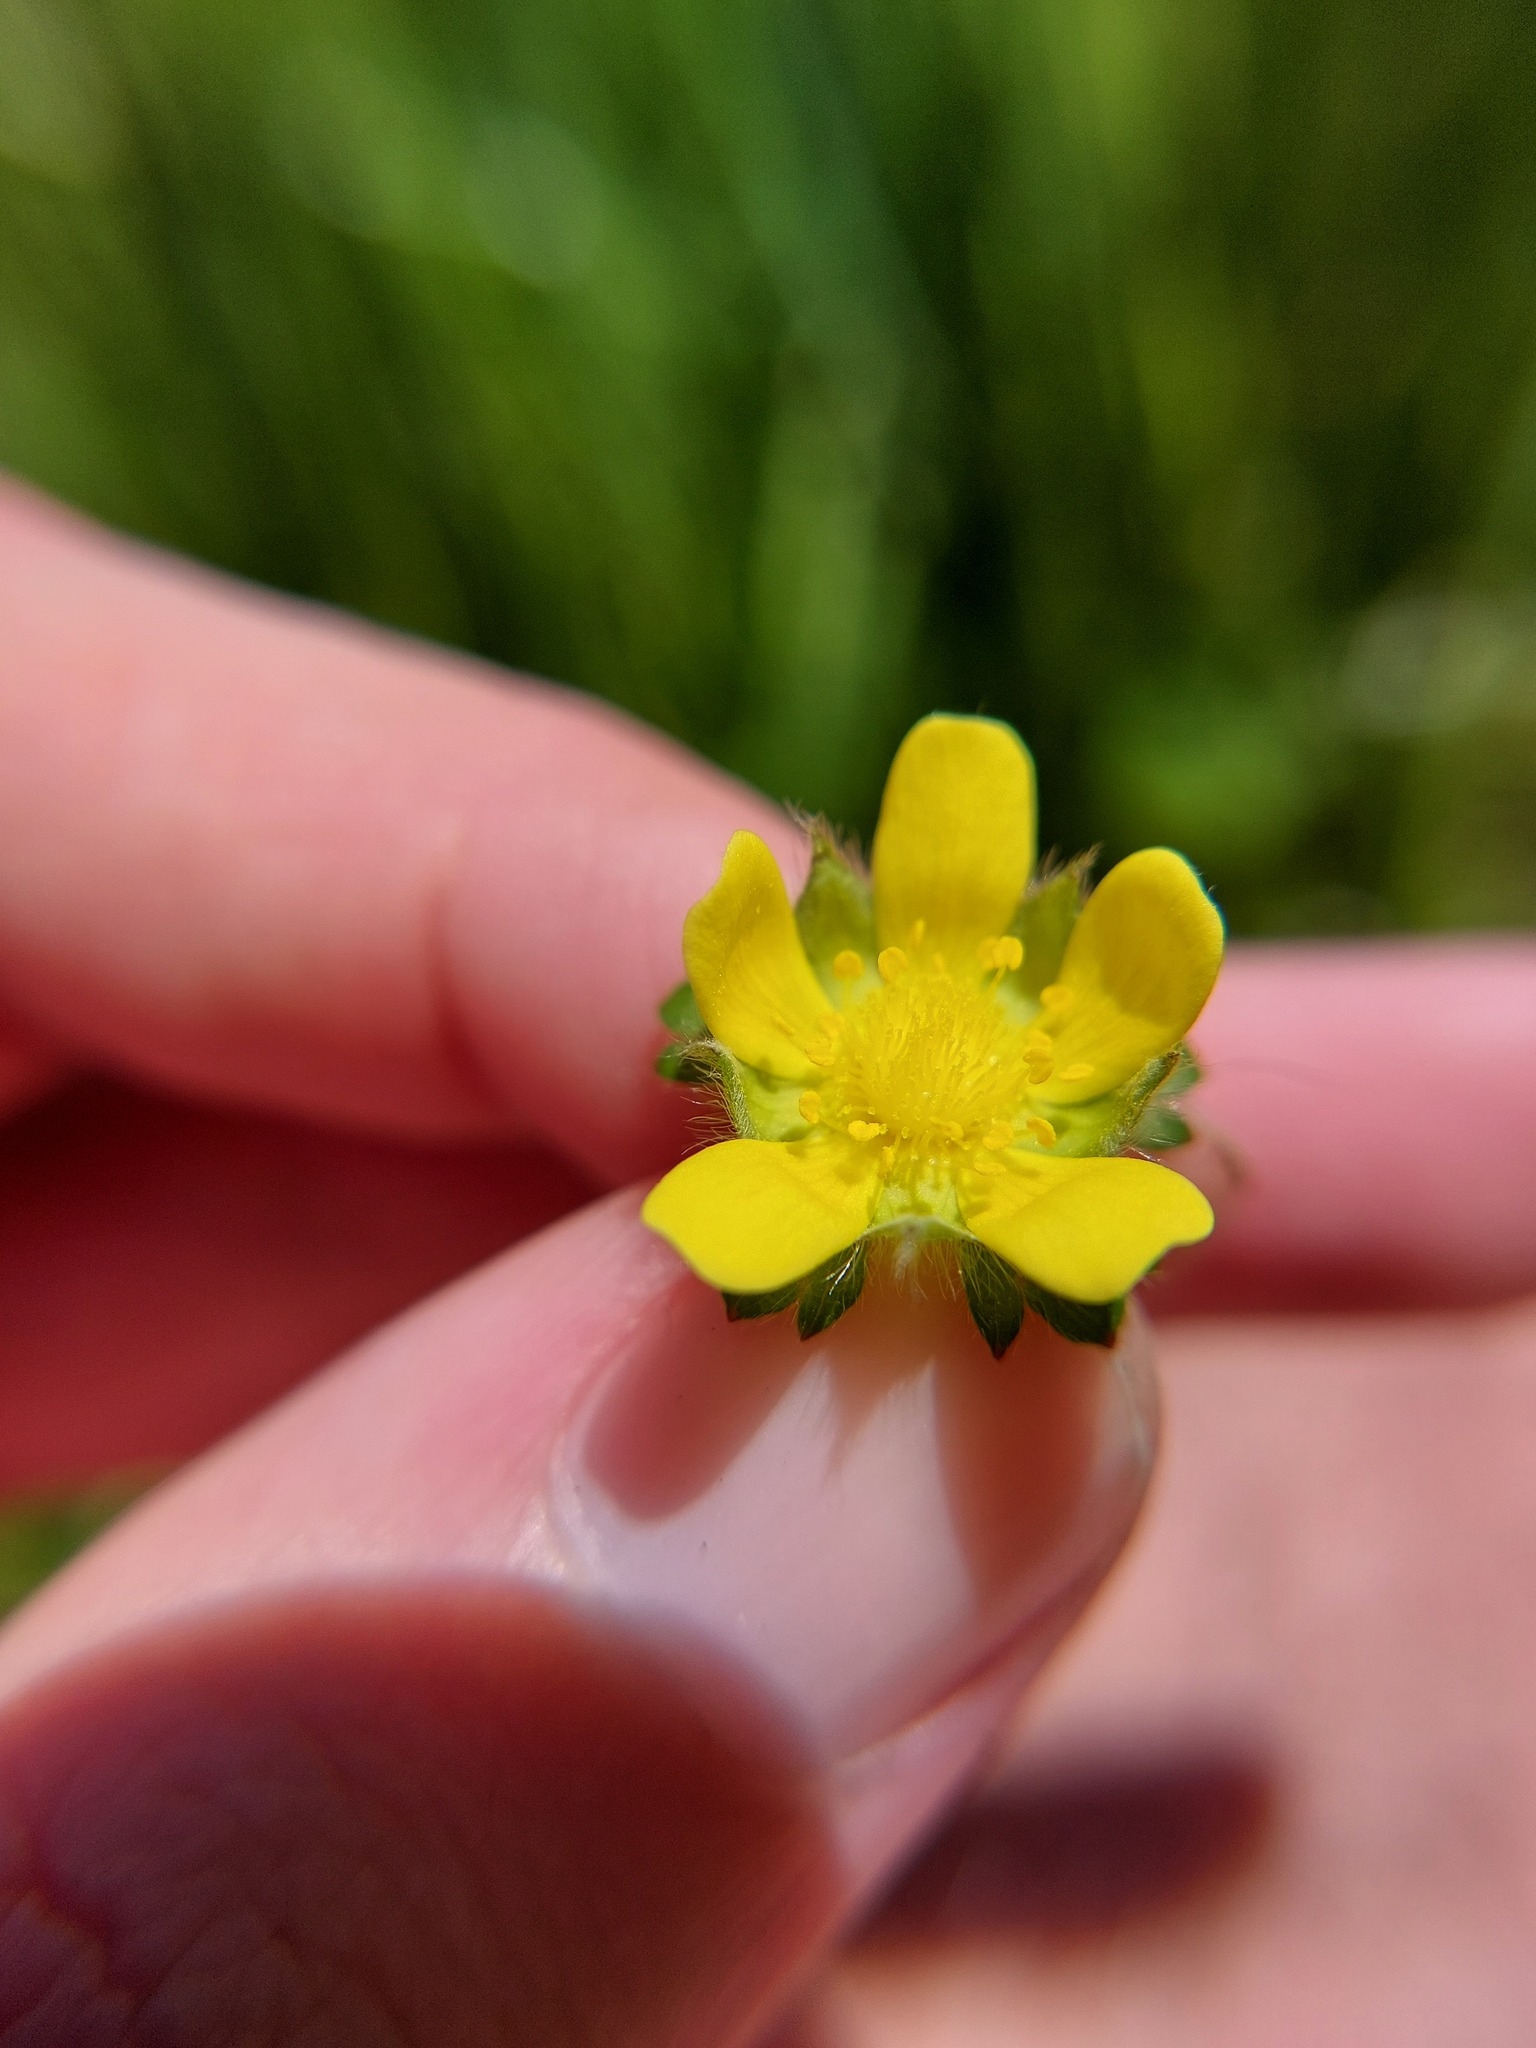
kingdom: Plantae
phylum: Tracheophyta
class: Magnoliopsida
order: Rosales
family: Rosaceae
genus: Potentilla
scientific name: Potentilla indica
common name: Yellow-flowered strawberry
